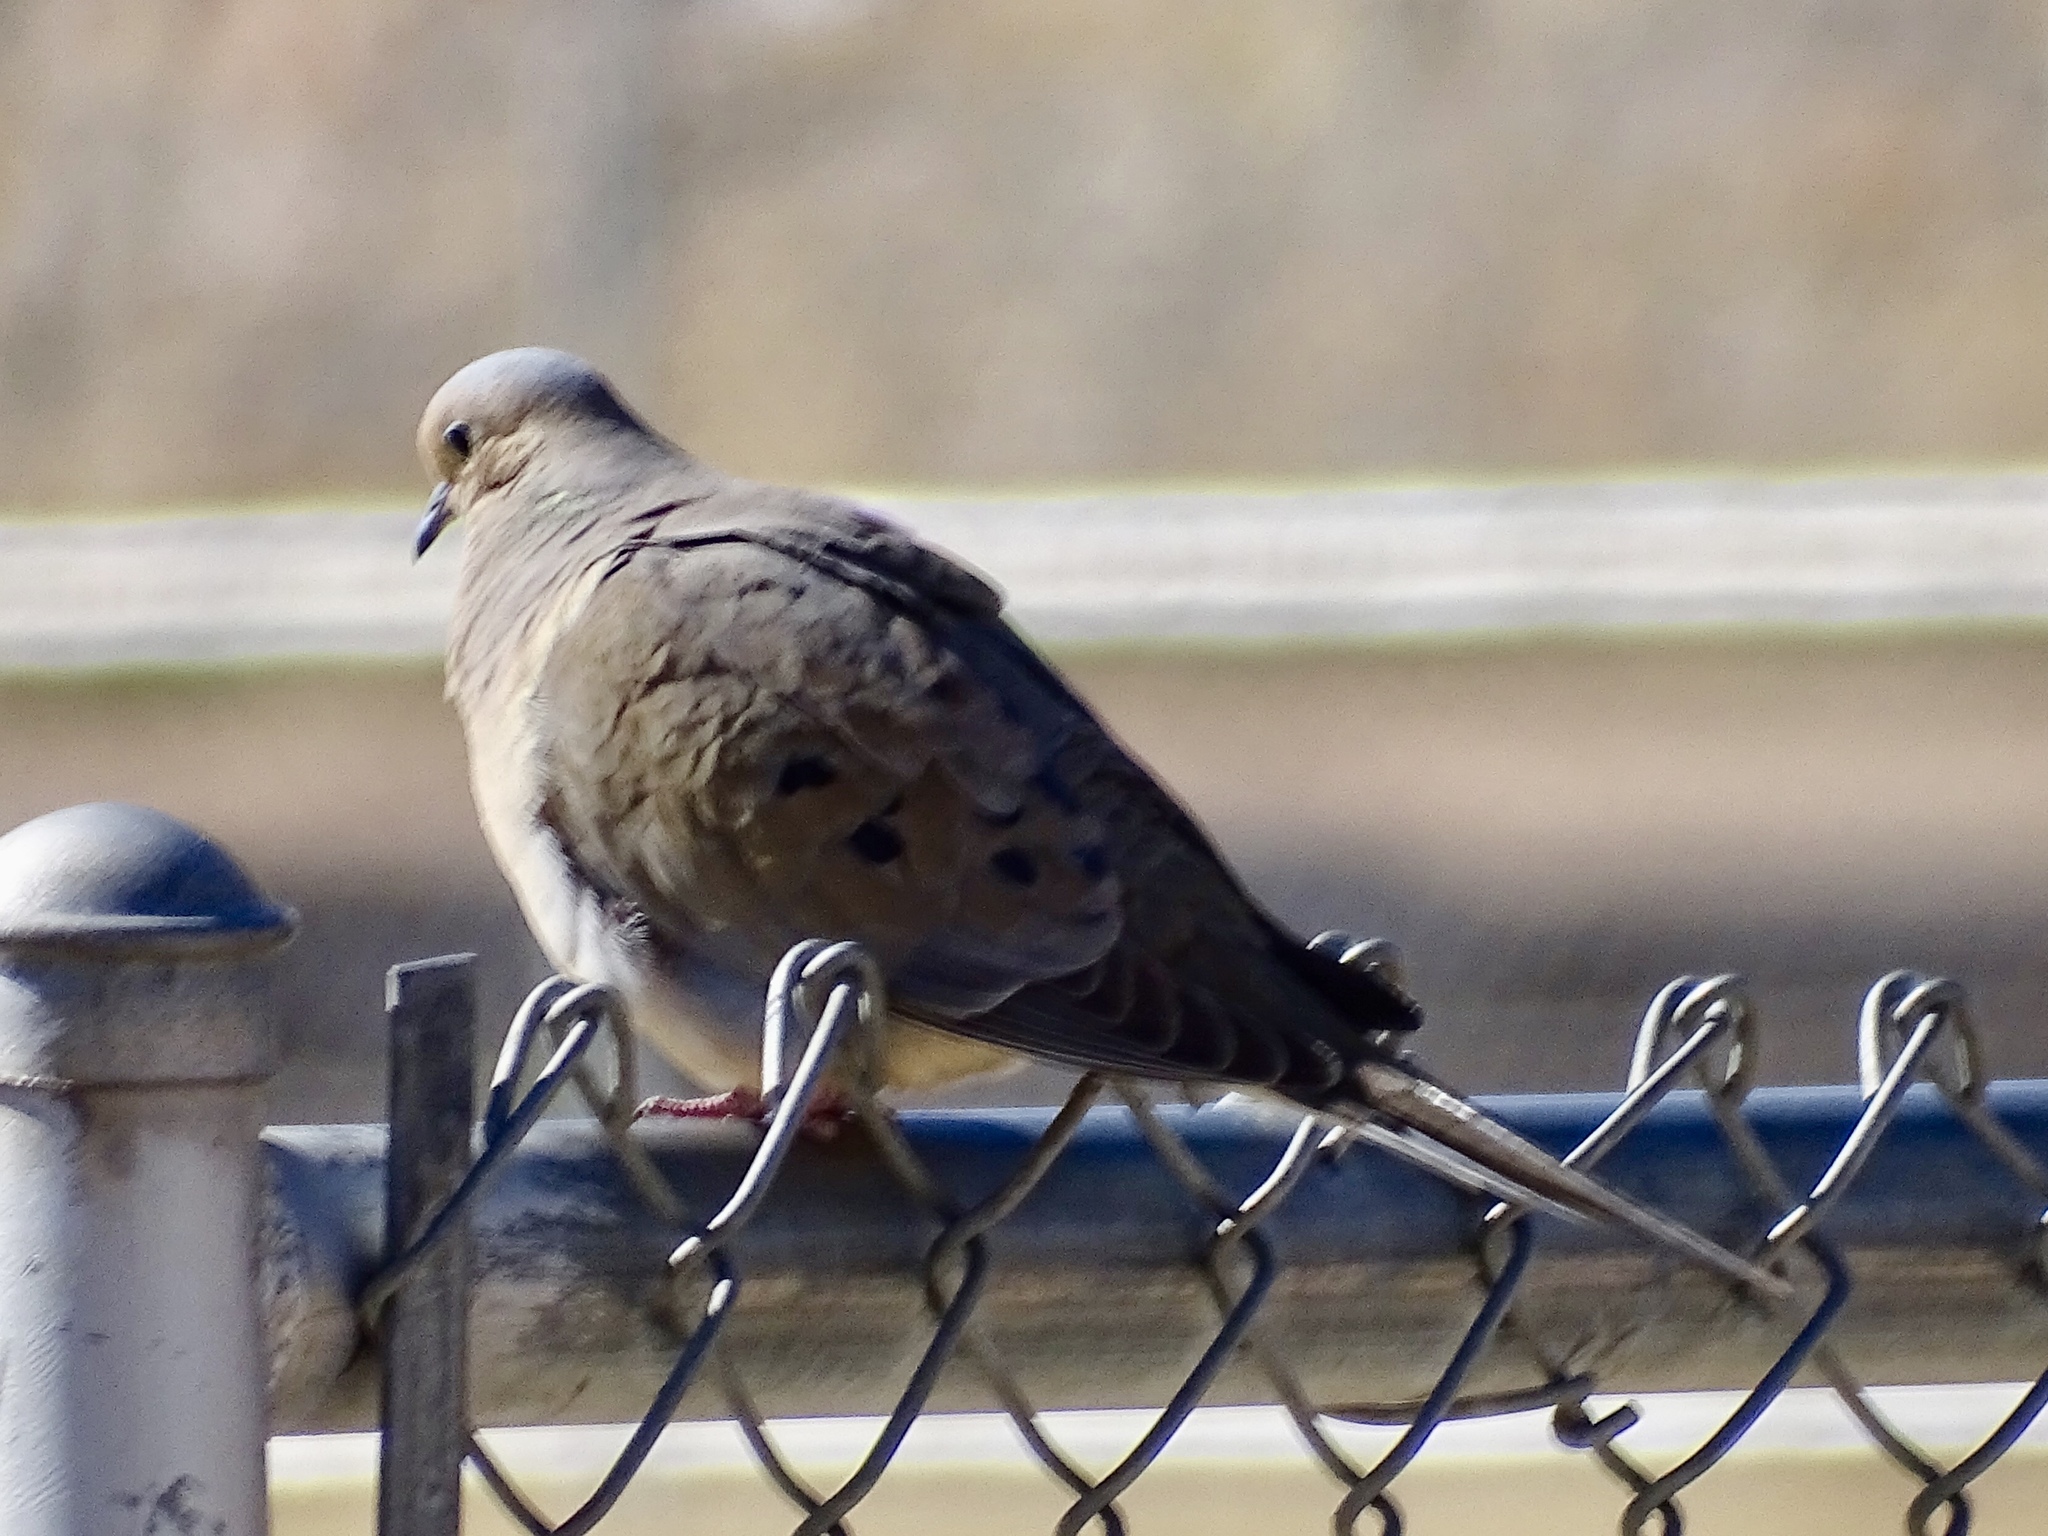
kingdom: Animalia
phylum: Chordata
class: Aves
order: Columbiformes
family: Columbidae
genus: Zenaida
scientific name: Zenaida macroura
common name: Mourning dove
